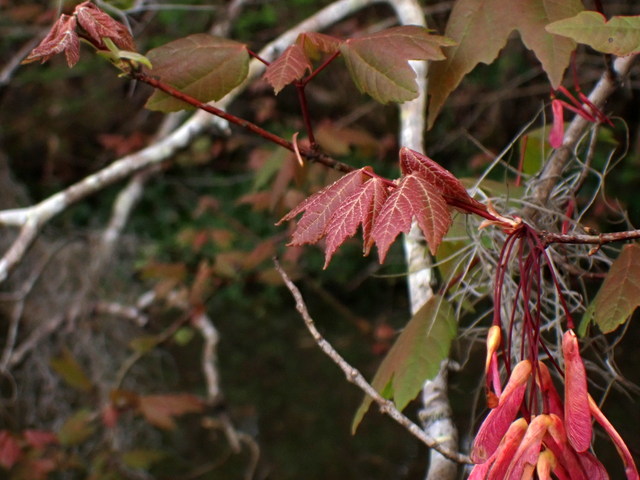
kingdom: Plantae
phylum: Tracheophyta
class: Magnoliopsida
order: Sapindales
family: Sapindaceae
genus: Acer
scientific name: Acer rubrum
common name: Red maple
